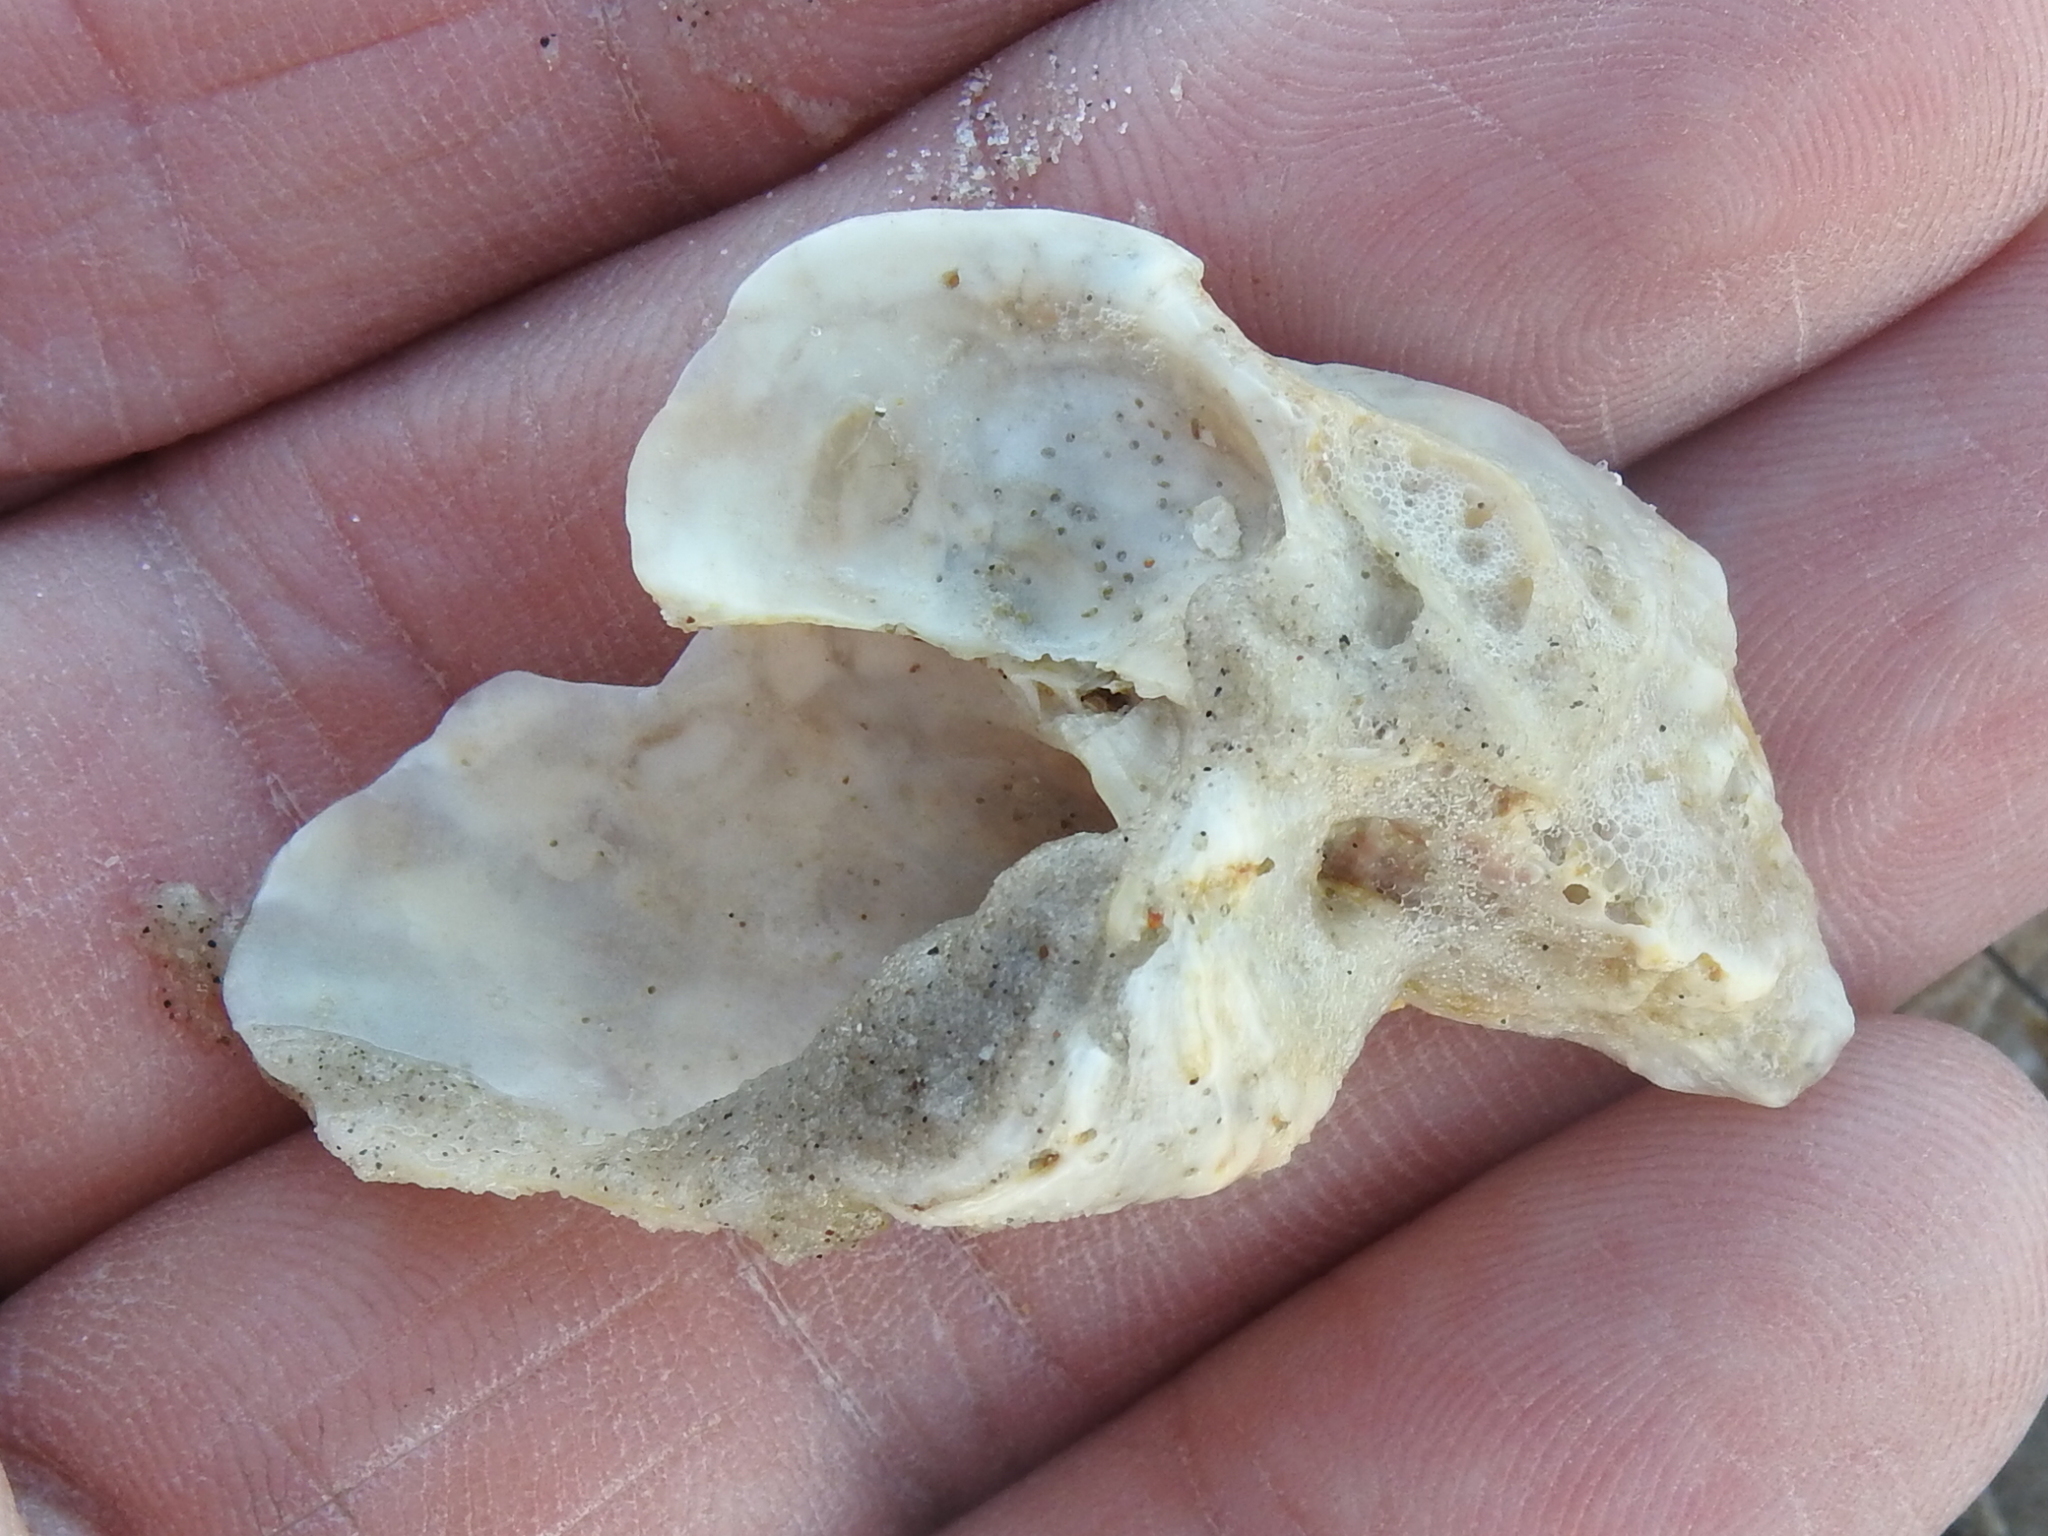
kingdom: Animalia
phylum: Mollusca
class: Bivalvia
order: Ostreida
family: Ostreidae
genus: Crassostrea
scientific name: Crassostrea virginica
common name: American oyster
